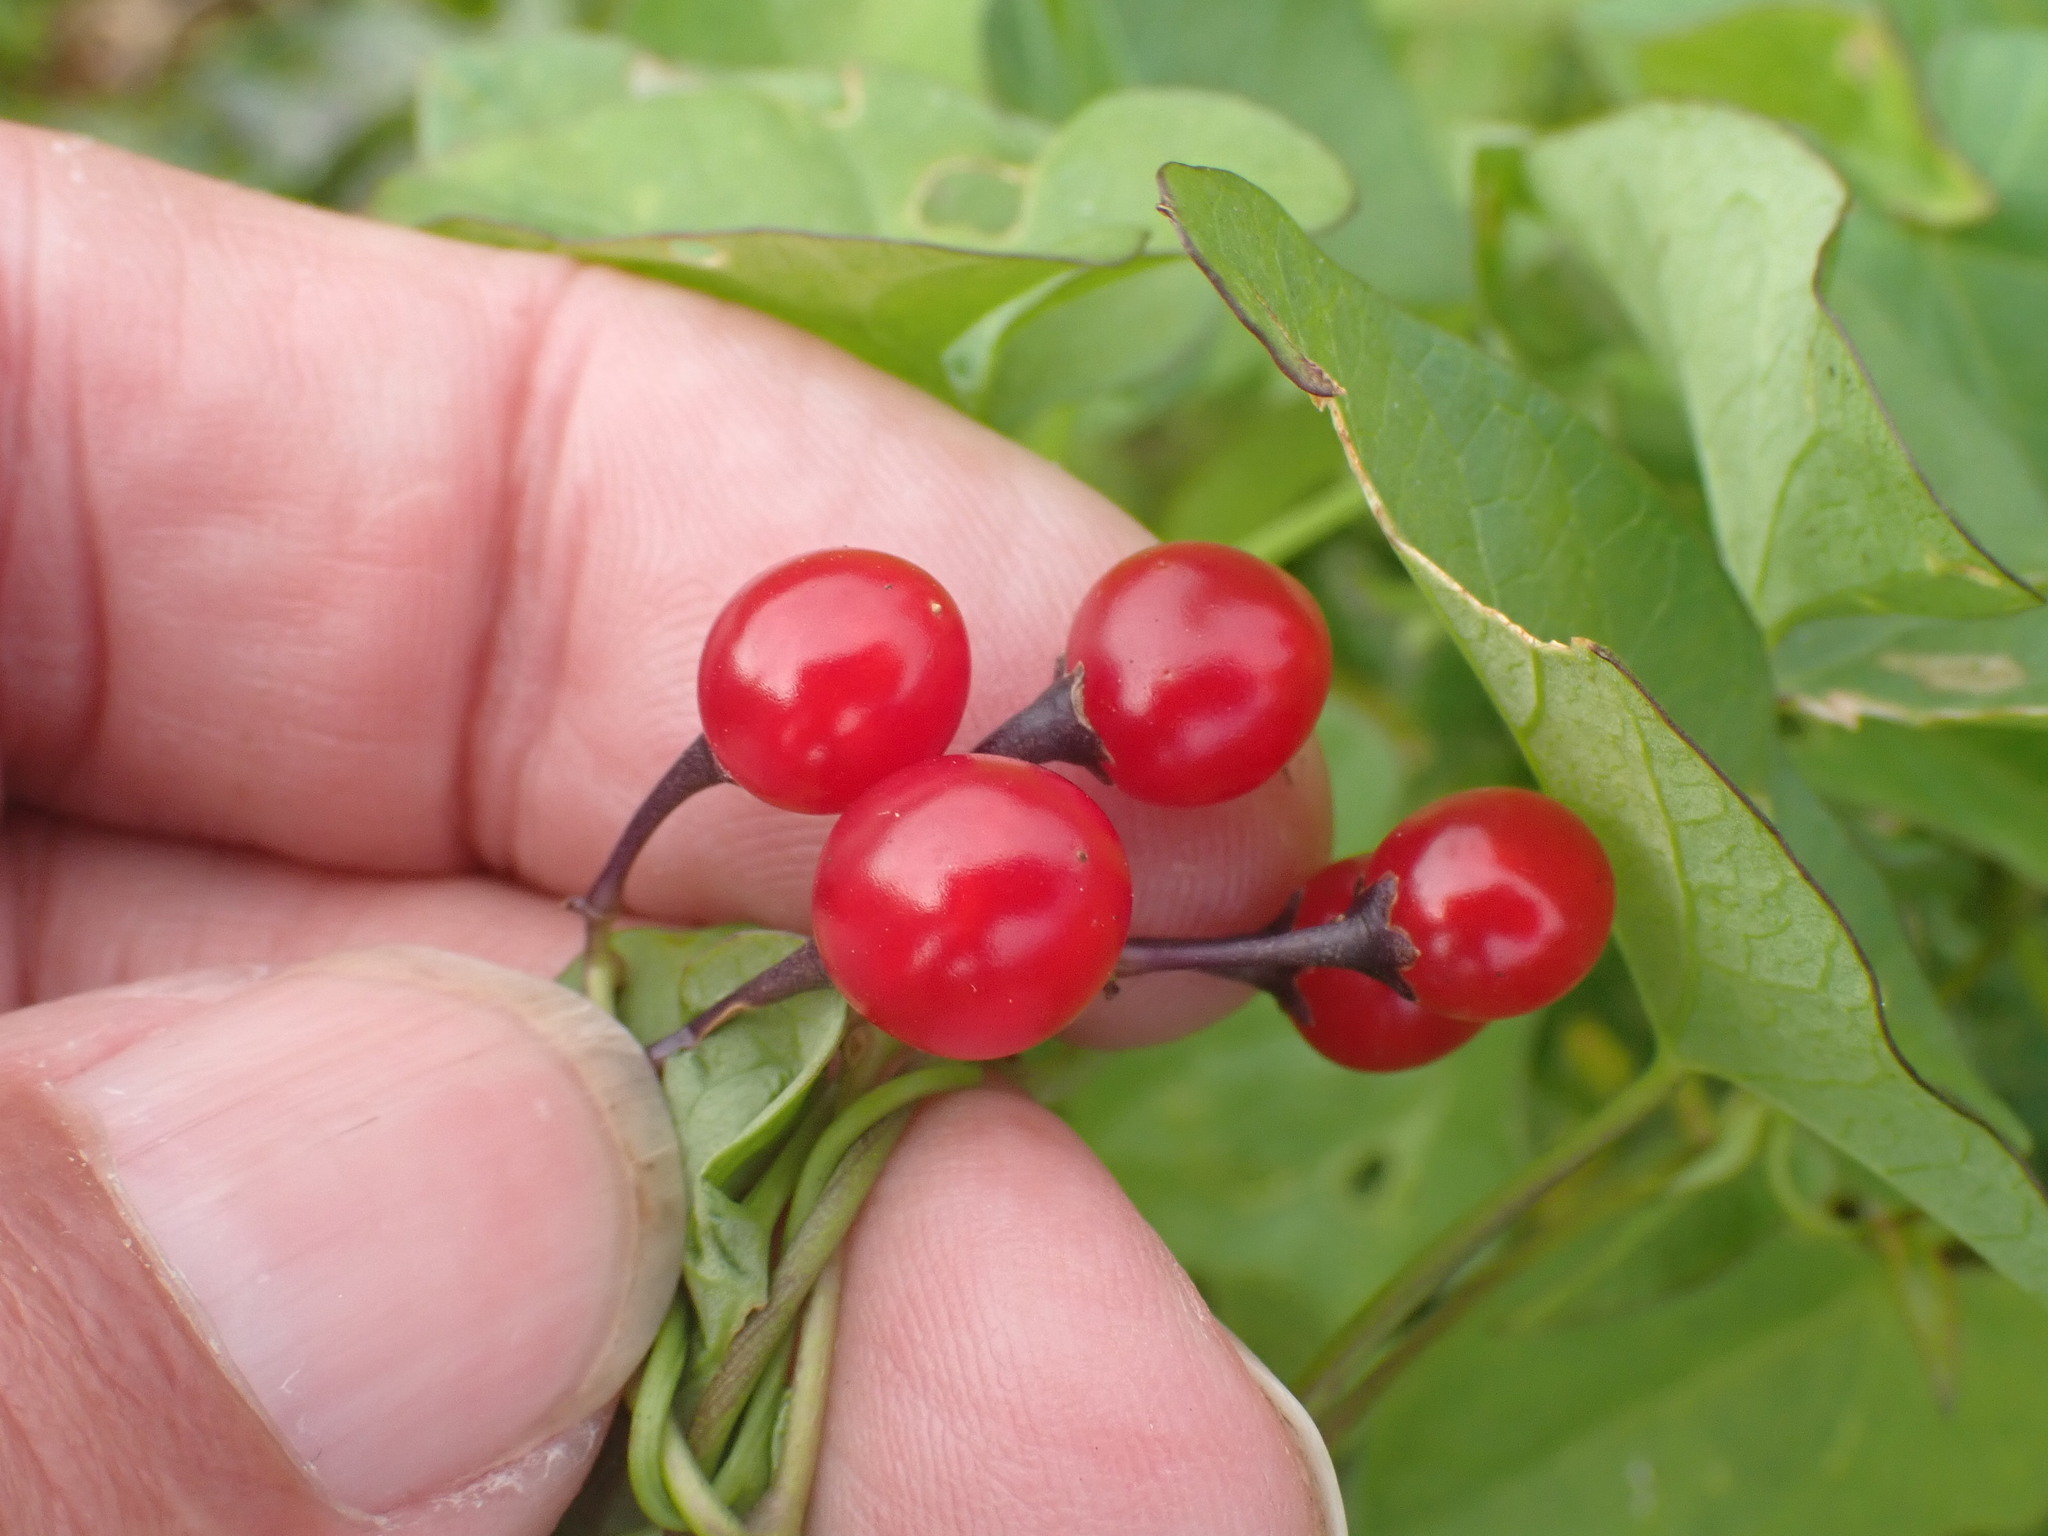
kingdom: Plantae
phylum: Tracheophyta
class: Magnoliopsida
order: Solanales
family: Solanaceae
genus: Solanum
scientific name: Solanum dulcamara
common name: Climbing nightshade
